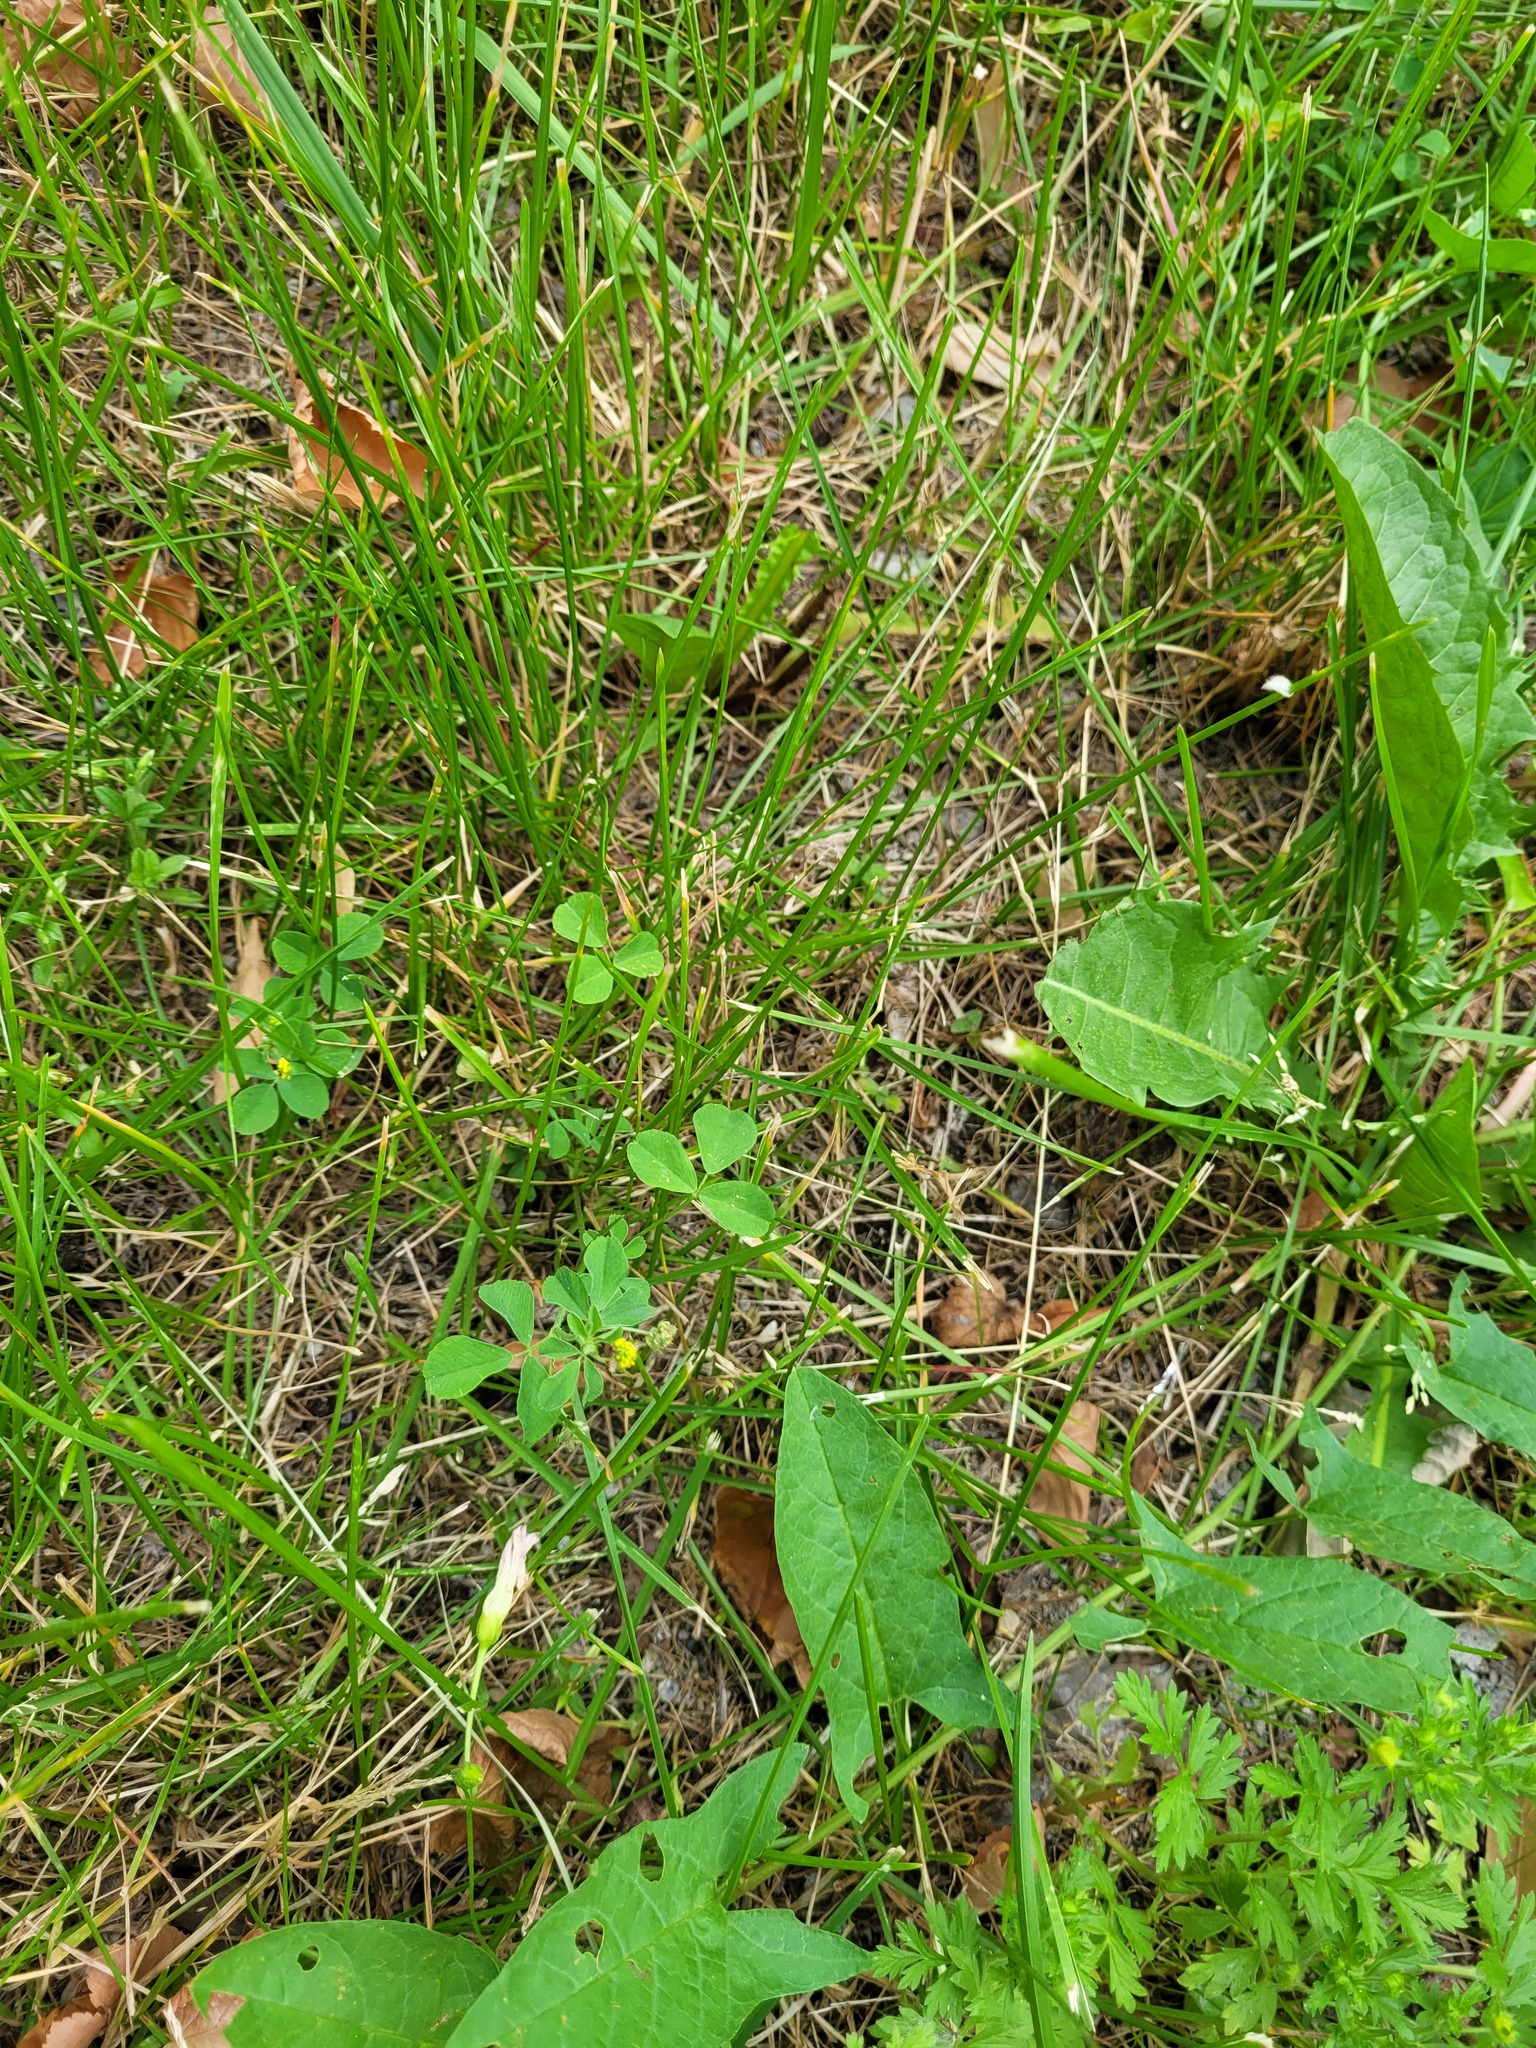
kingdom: Plantae
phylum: Tracheophyta
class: Magnoliopsida
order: Fabales
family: Fabaceae
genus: Medicago
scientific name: Medicago lupulina
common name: Black medick
